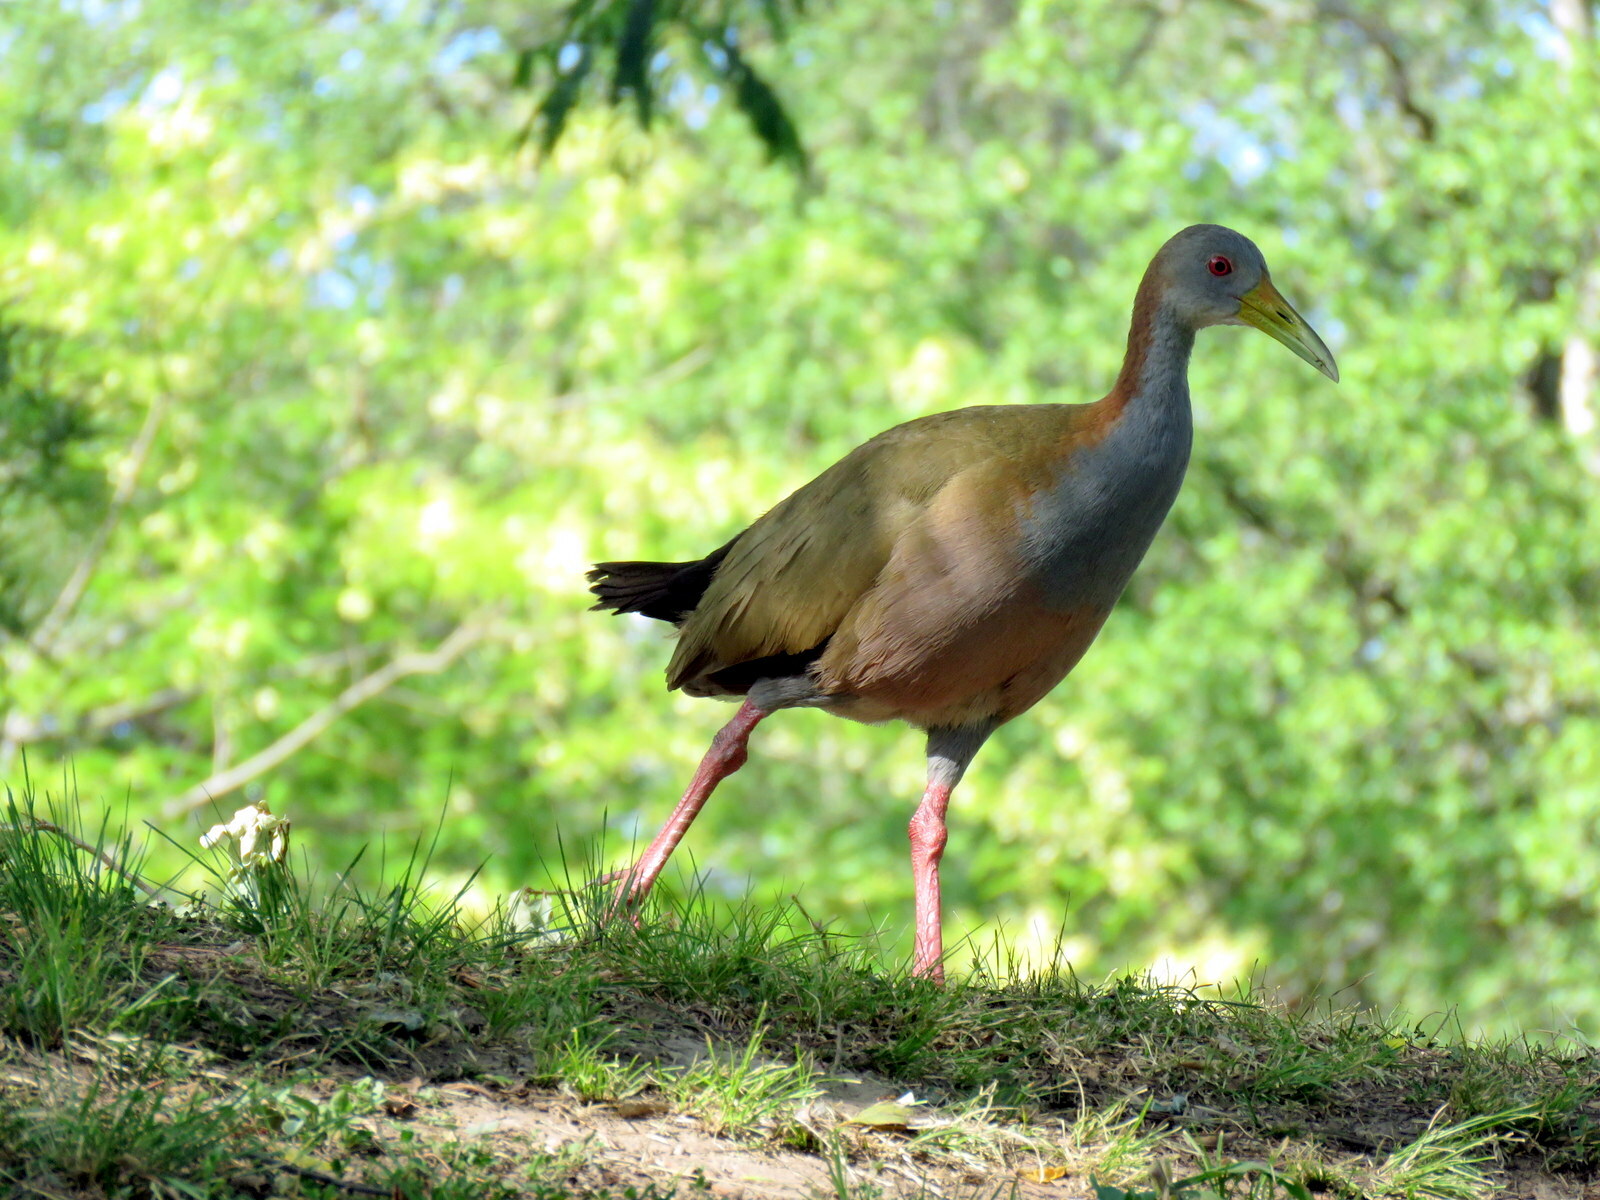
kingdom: Animalia
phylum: Chordata
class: Aves
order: Gruiformes
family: Rallidae
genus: Aramides
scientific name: Aramides ypecaha
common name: Giant wood rail
